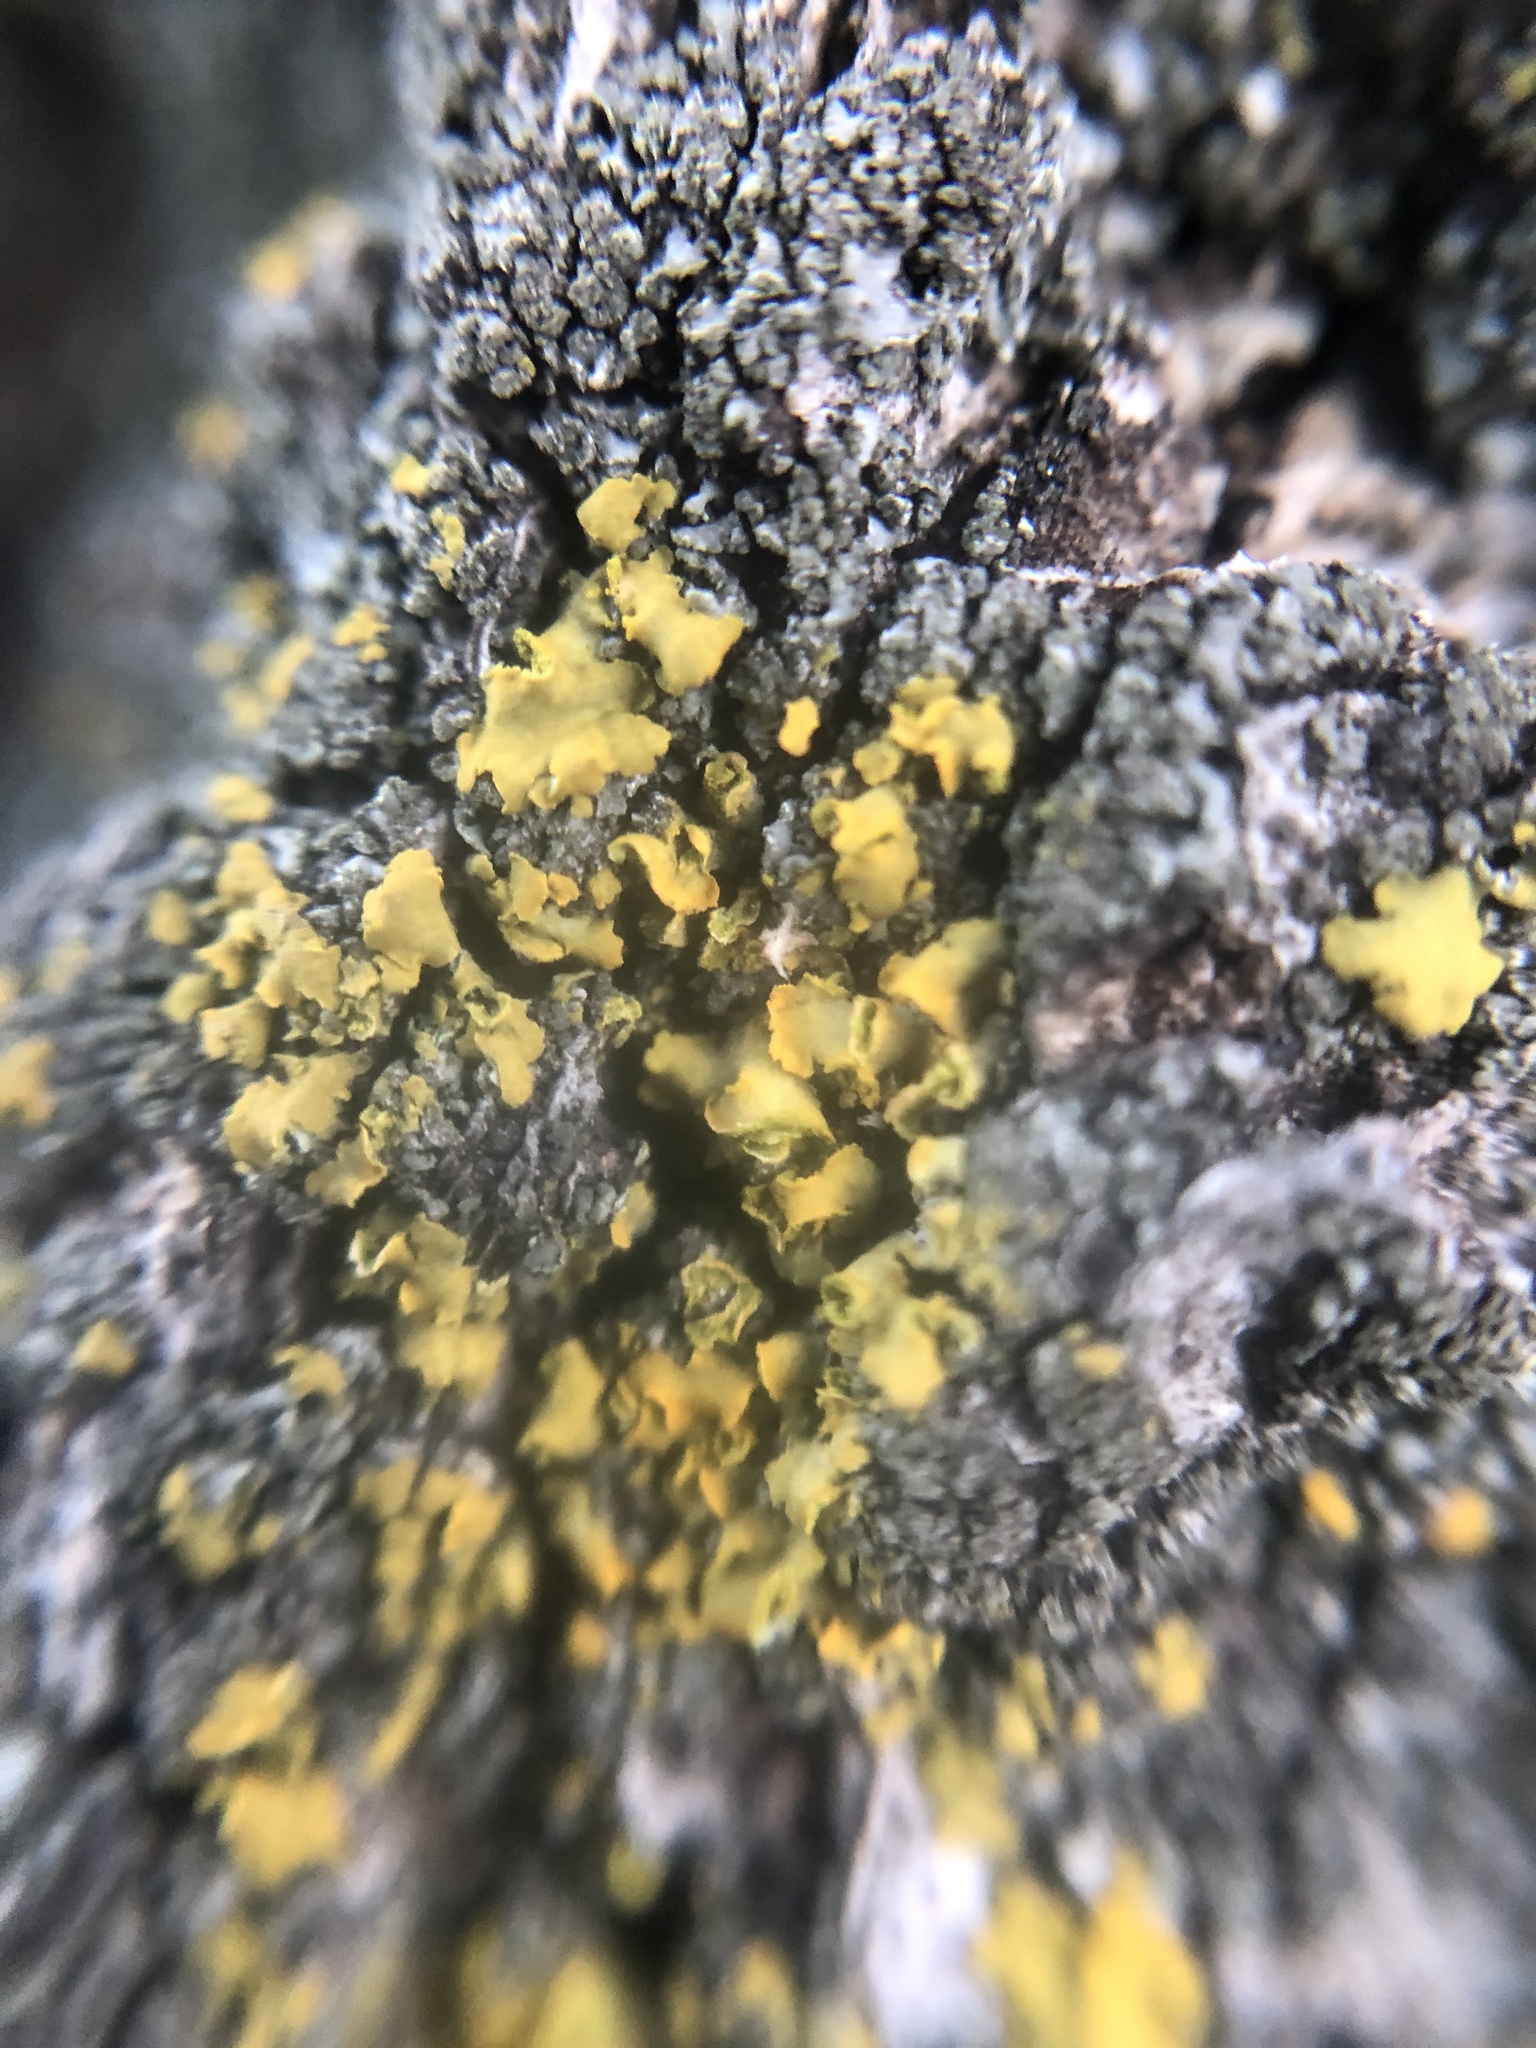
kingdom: Fungi
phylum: Ascomycota
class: Lecanoromycetes
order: Teloschistales
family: Teloschistaceae
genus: Oxneria
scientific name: Oxneria fallax
